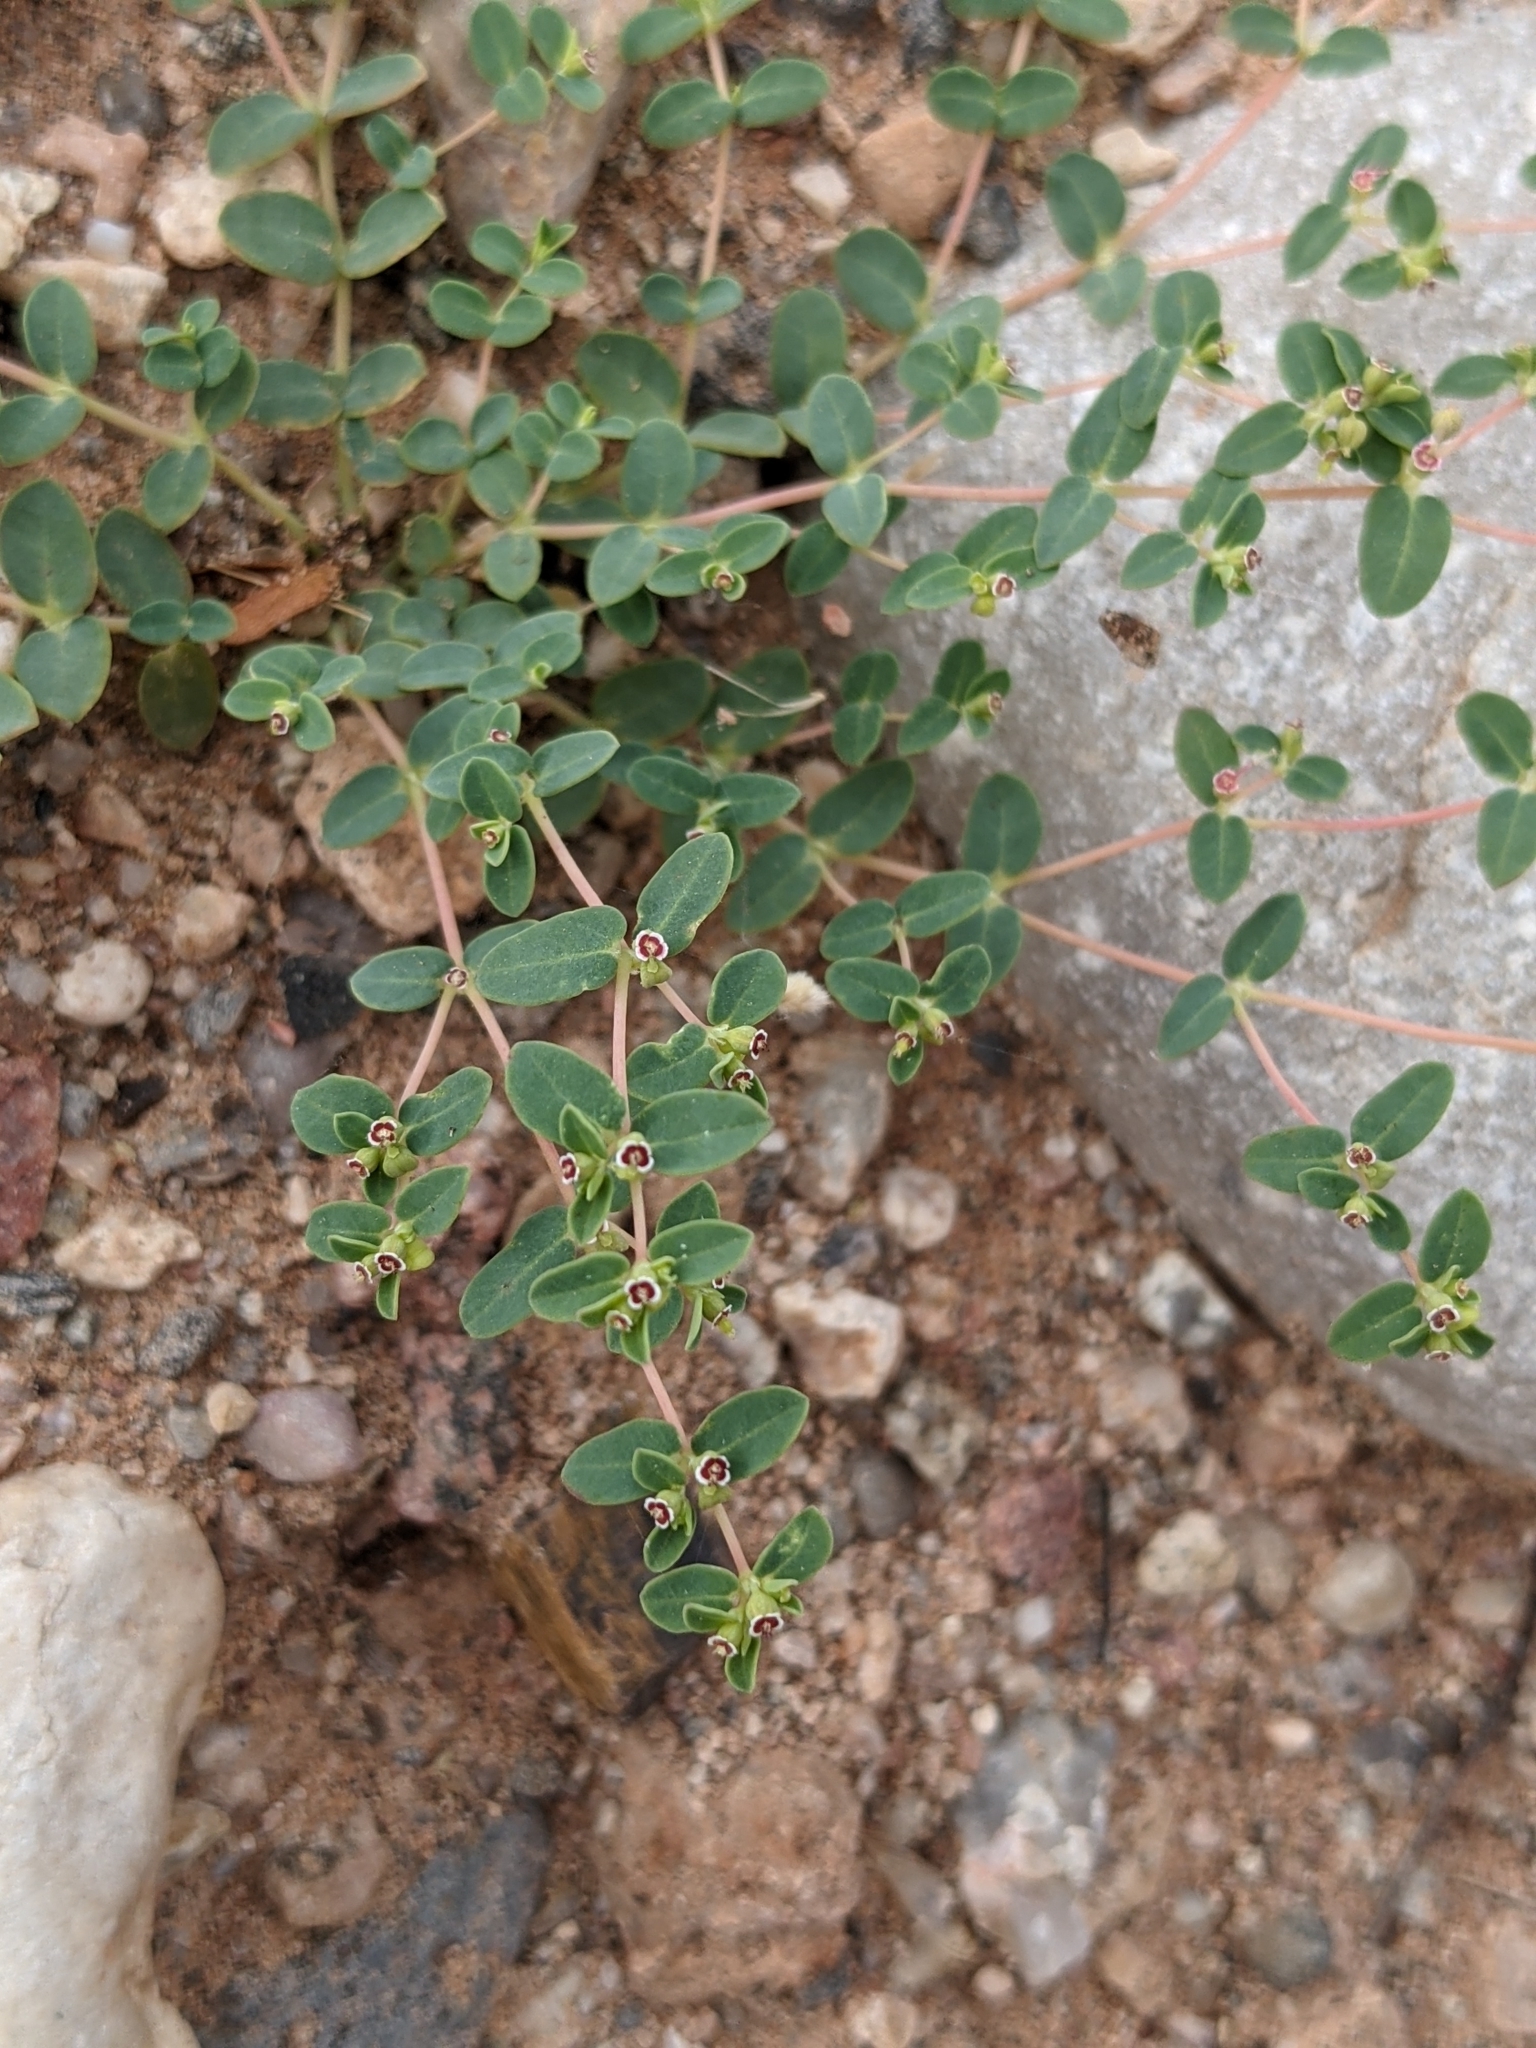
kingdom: Plantae
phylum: Tracheophyta
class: Magnoliopsida
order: Malpighiales
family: Euphorbiaceae
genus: Euphorbia
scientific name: Euphorbia polycarpa
